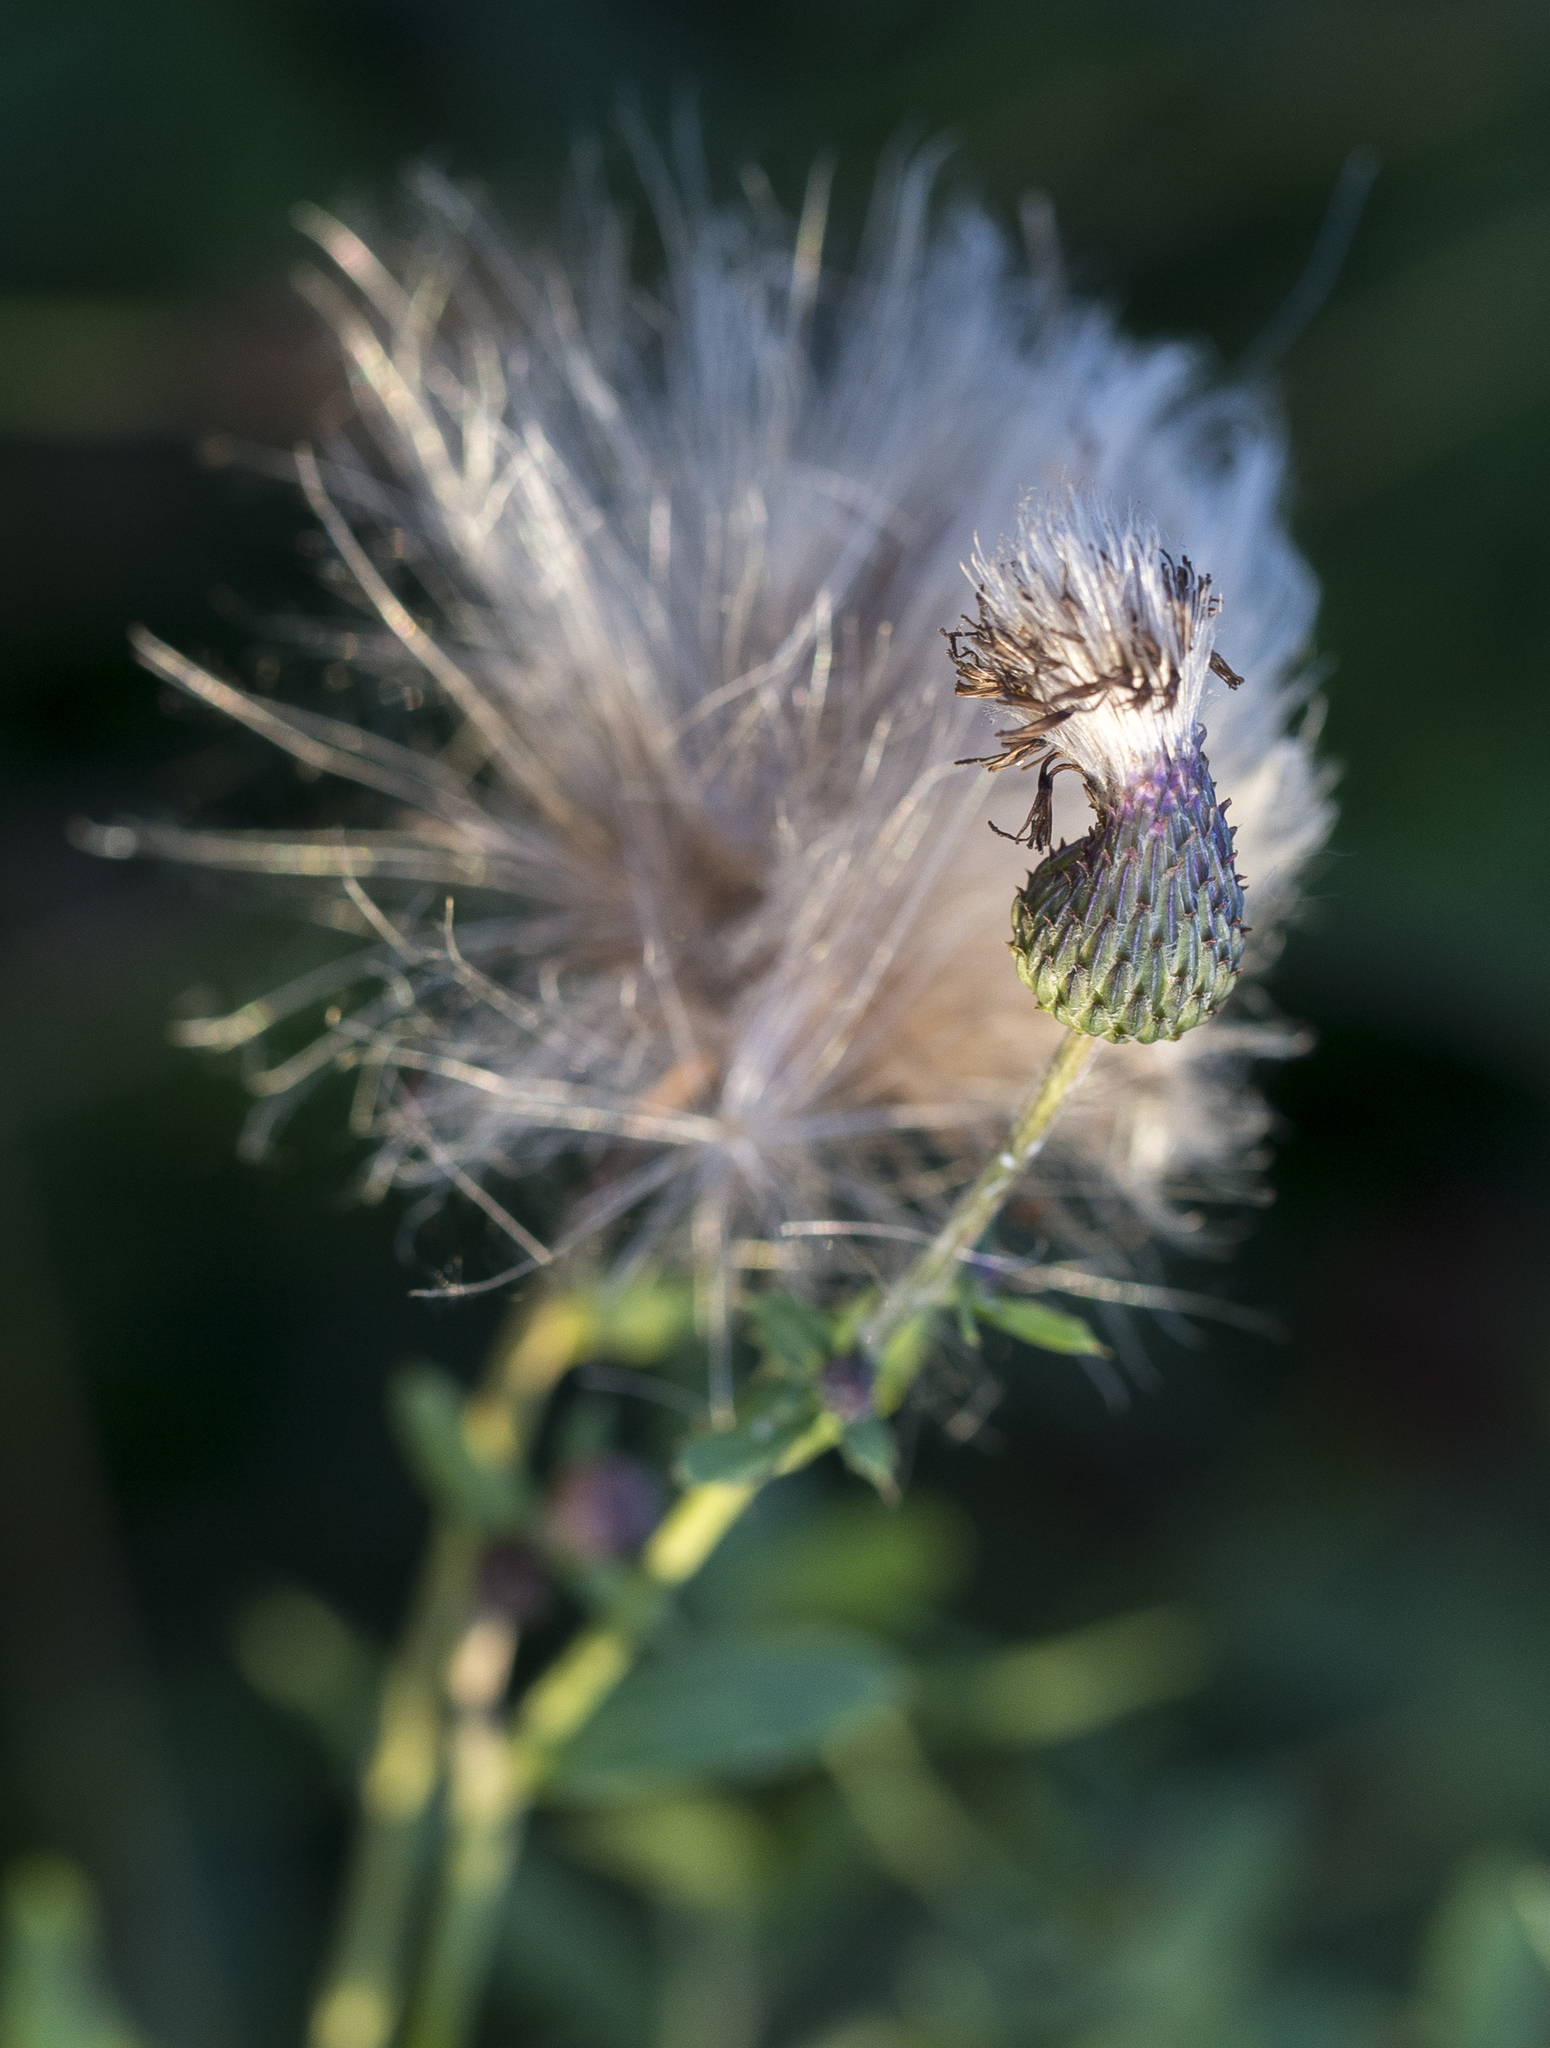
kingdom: Plantae
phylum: Tracheophyta
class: Magnoliopsida
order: Asterales
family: Asteraceae
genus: Cirsium
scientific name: Cirsium arvense
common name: Creeping thistle
